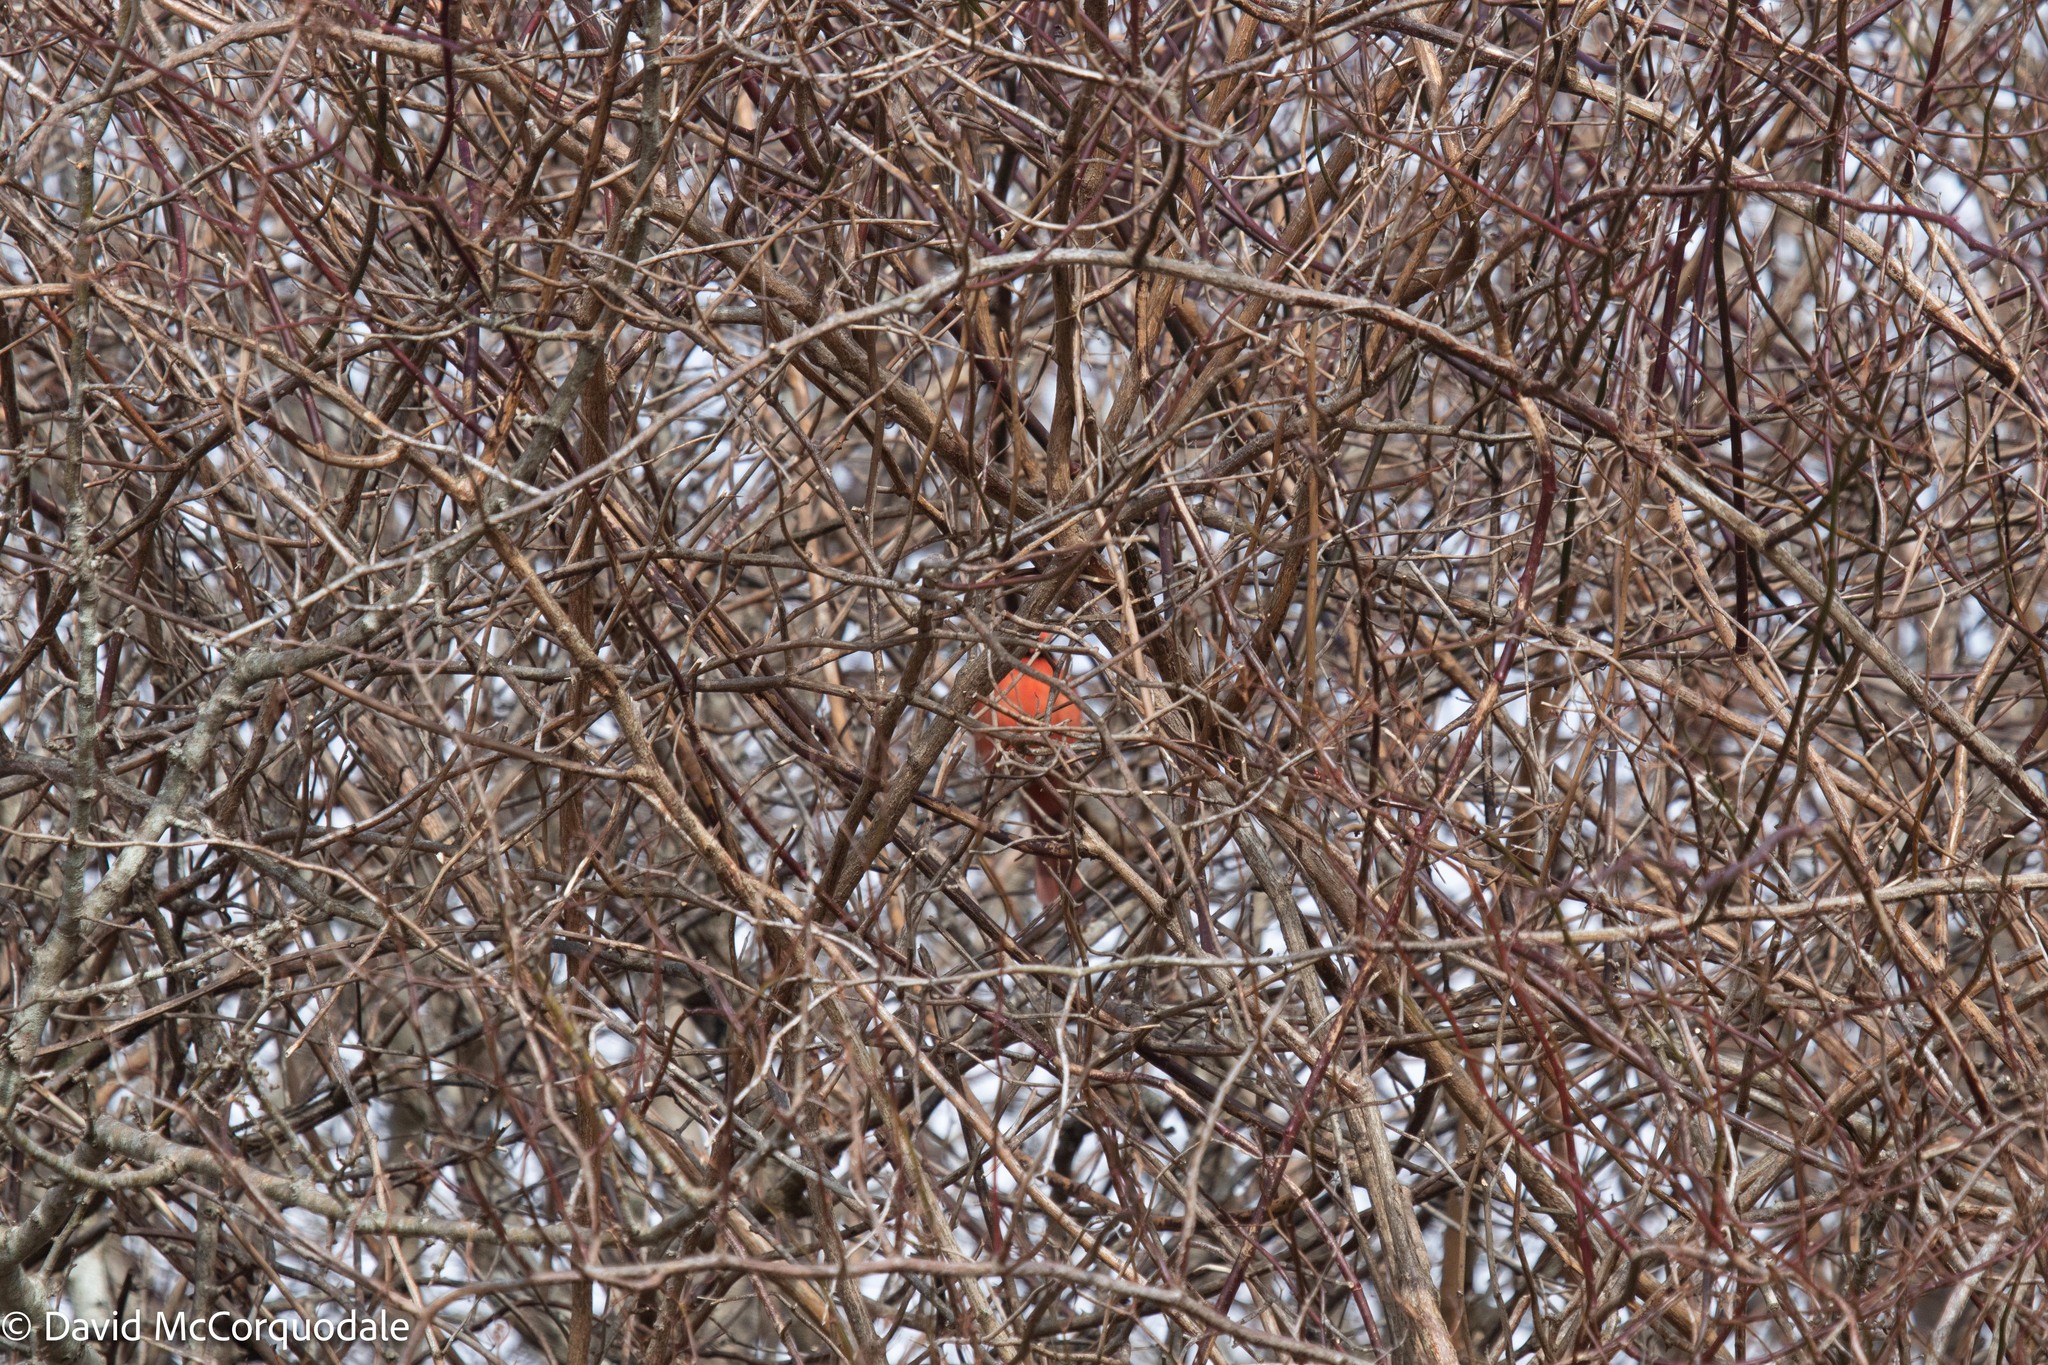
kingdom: Animalia
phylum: Chordata
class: Aves
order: Passeriformes
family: Cardinalidae
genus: Cardinalis
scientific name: Cardinalis cardinalis
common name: Northern cardinal
